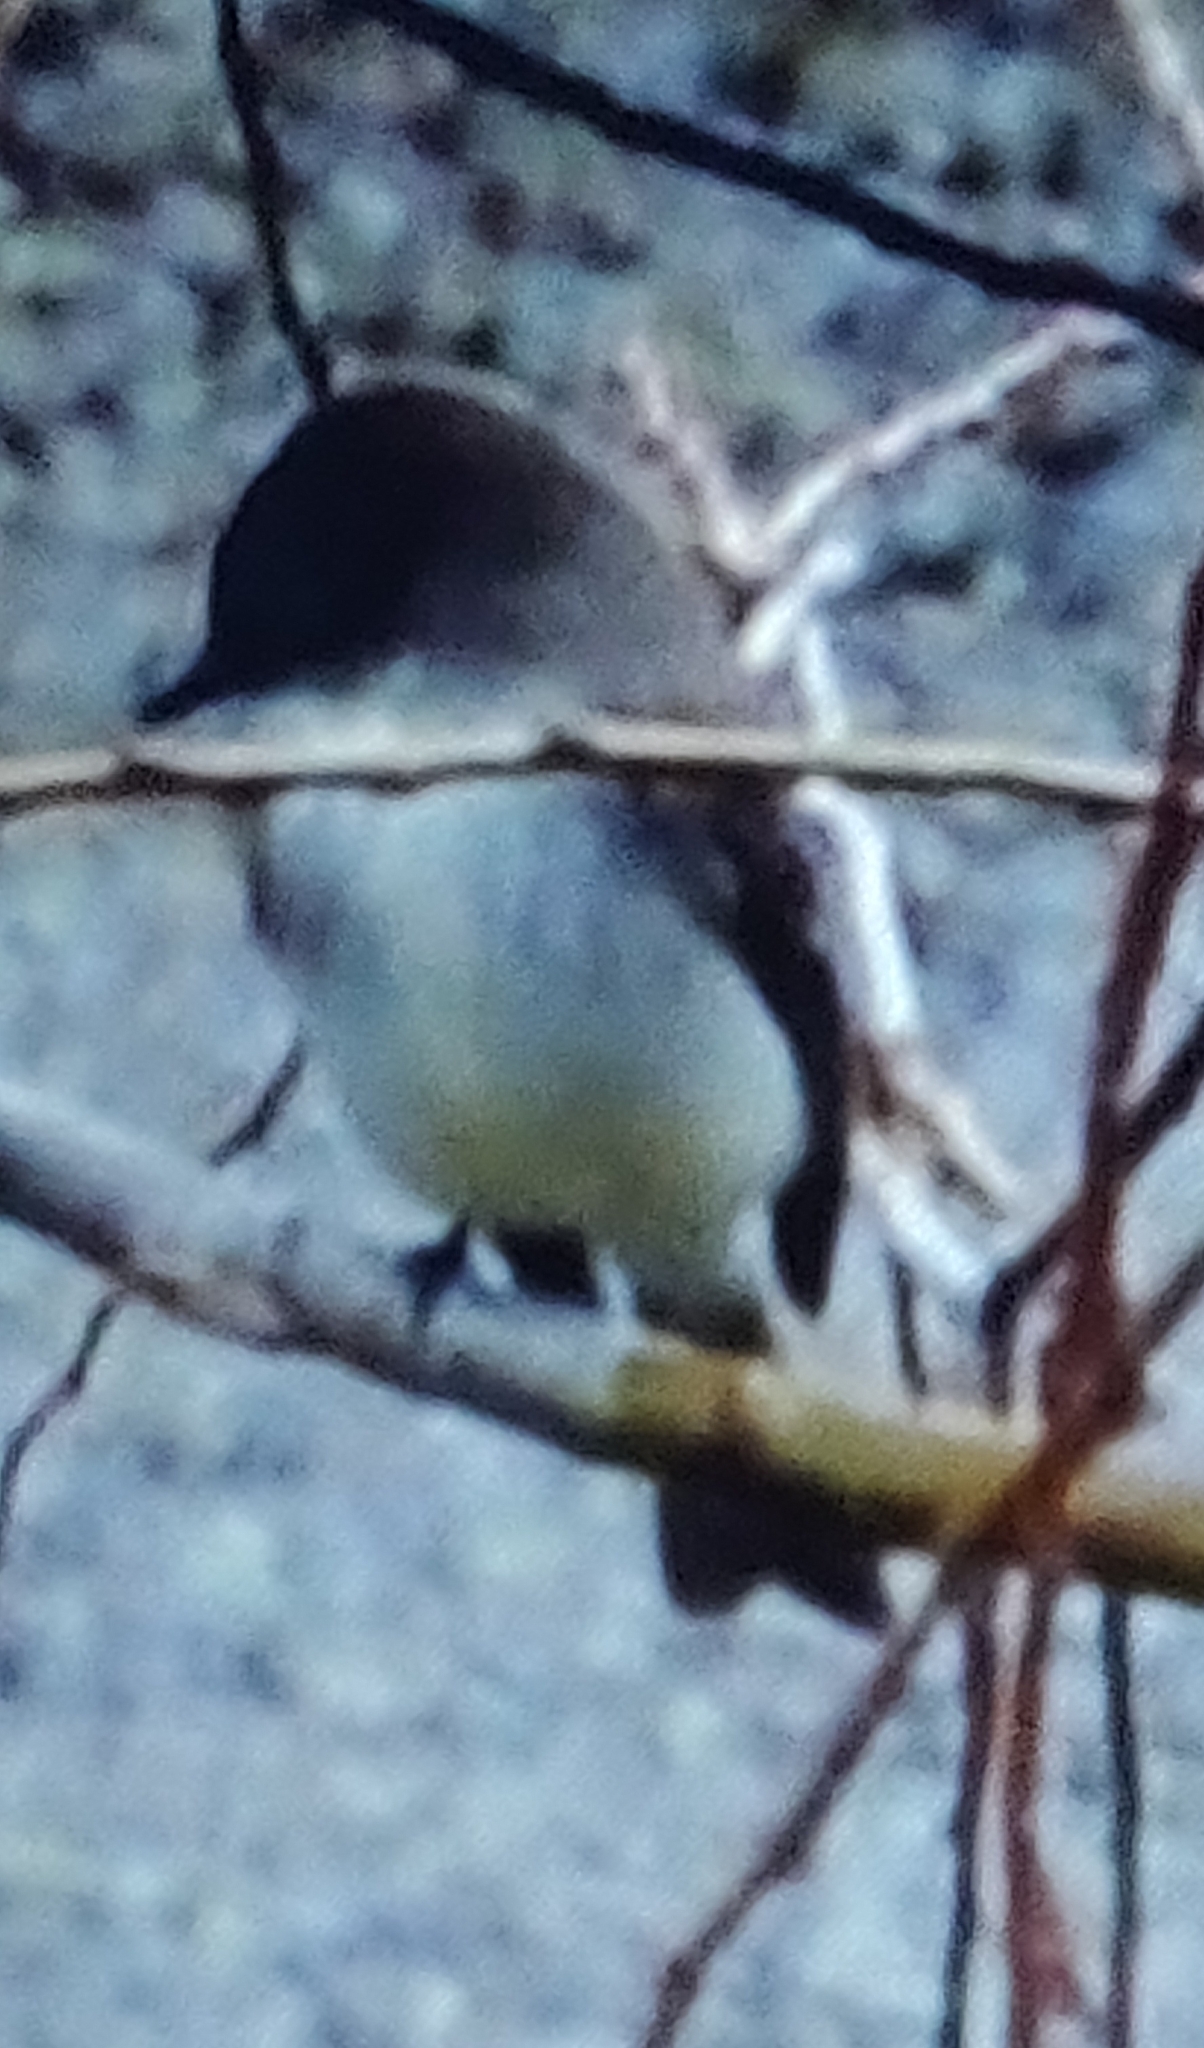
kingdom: Animalia
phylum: Chordata
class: Aves
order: Passeriformes
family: Tyrannidae
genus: Sayornis
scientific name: Sayornis phoebe
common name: Eastern phoebe
